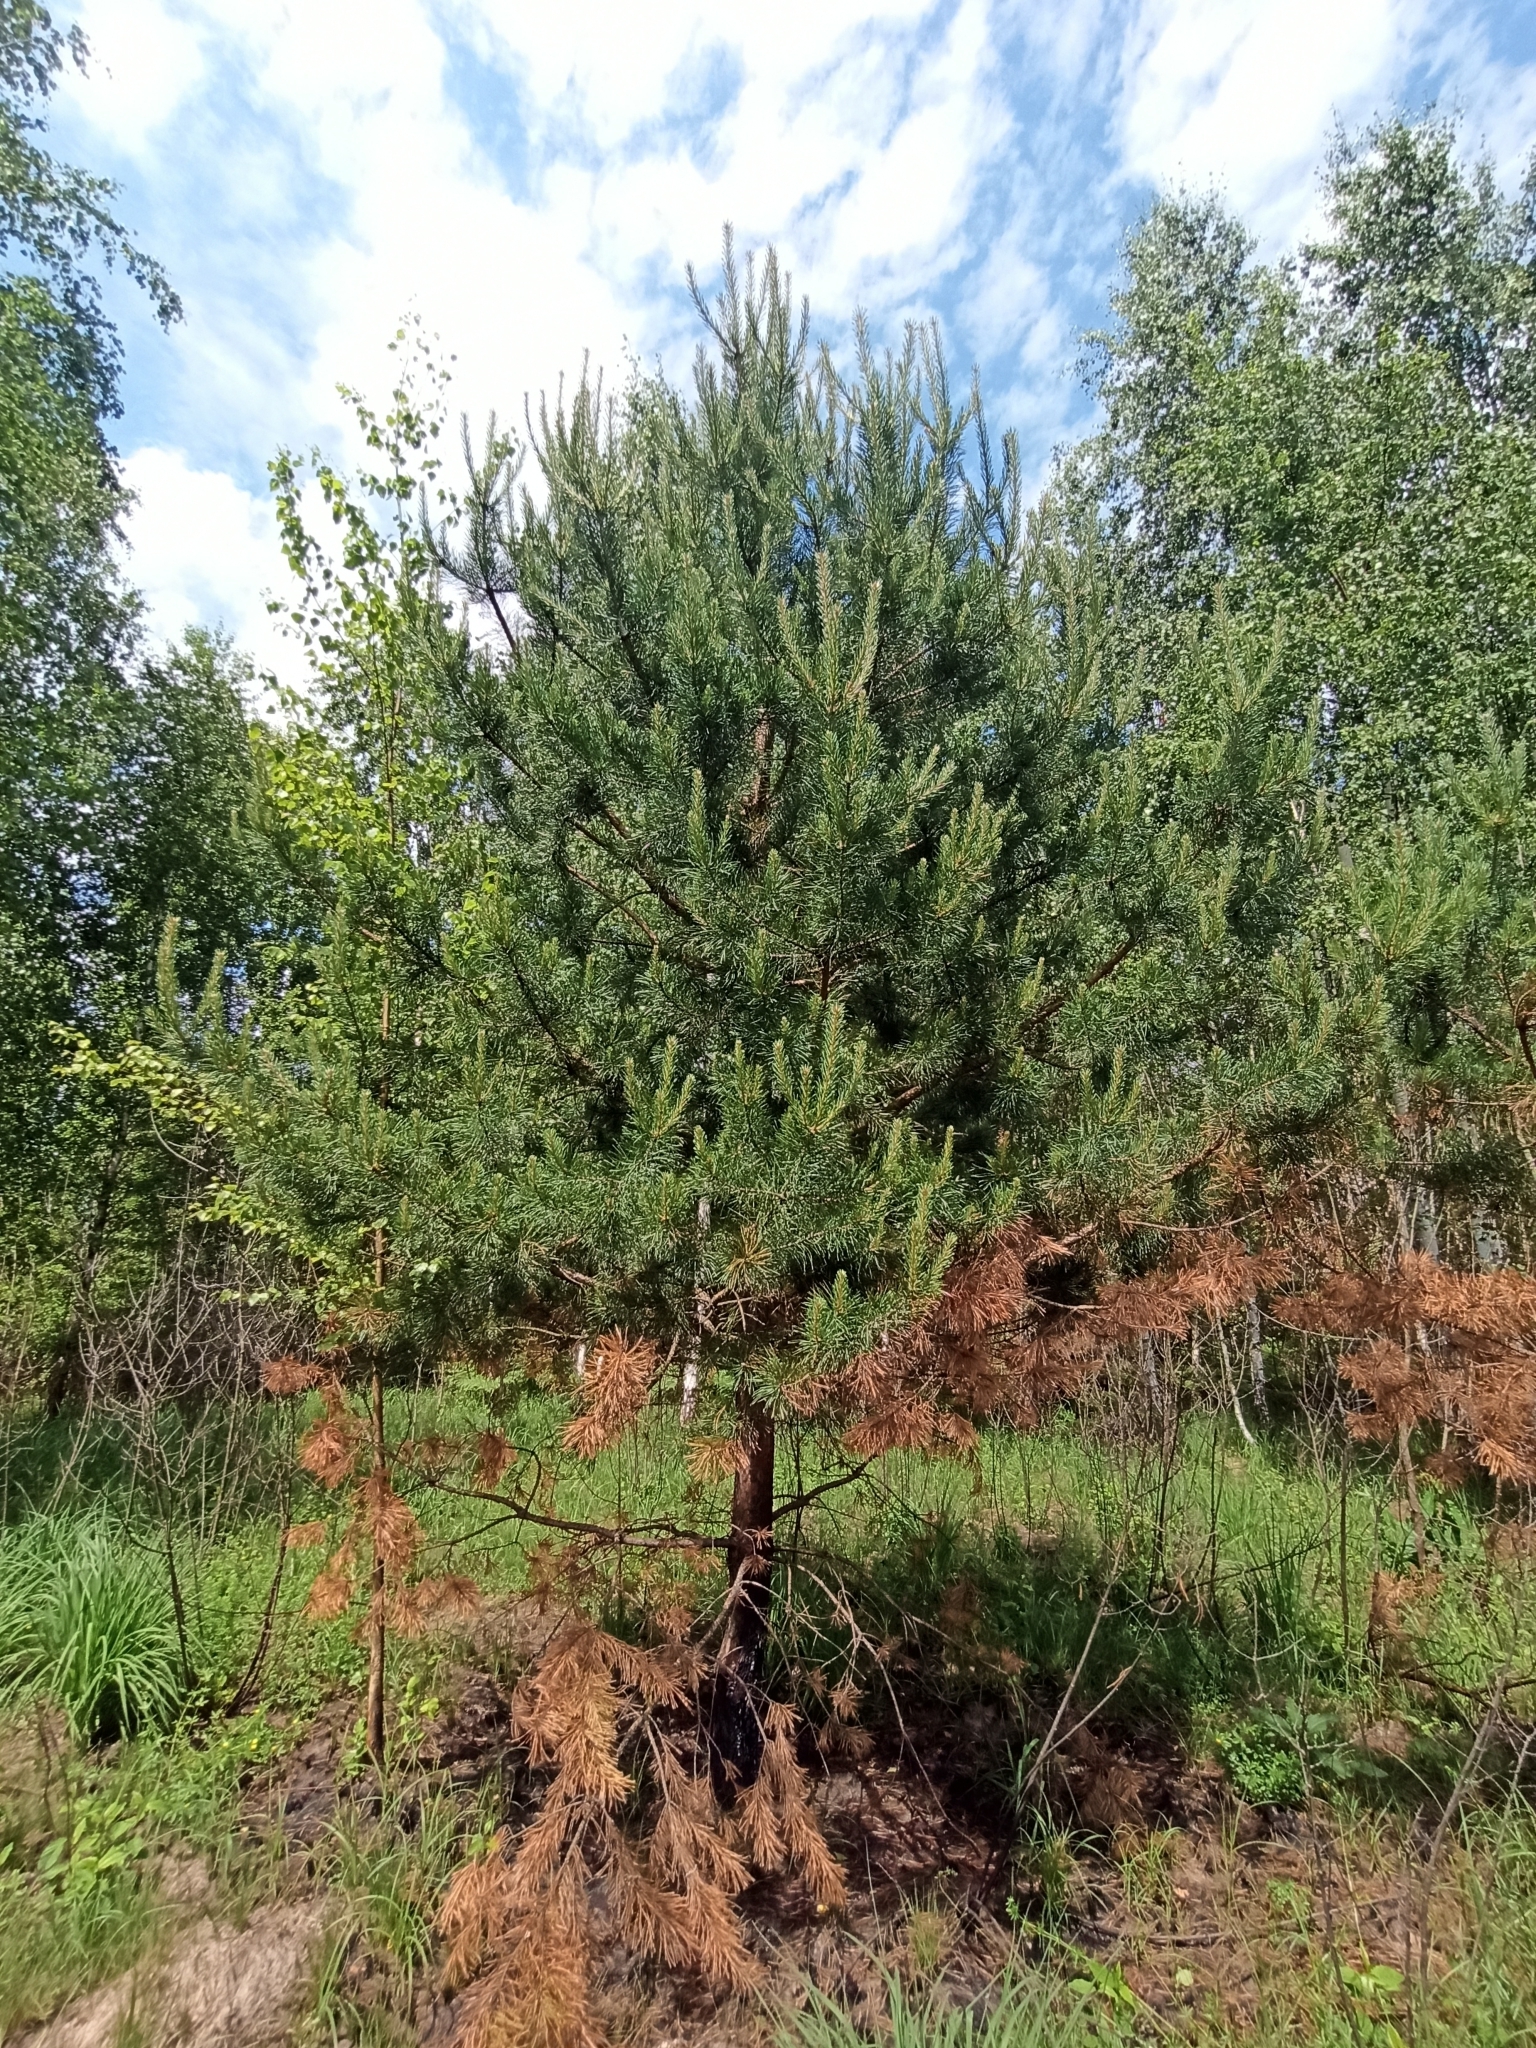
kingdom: Plantae
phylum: Tracheophyta
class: Pinopsida
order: Pinales
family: Pinaceae
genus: Pinus
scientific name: Pinus sylvestris
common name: Scots pine
